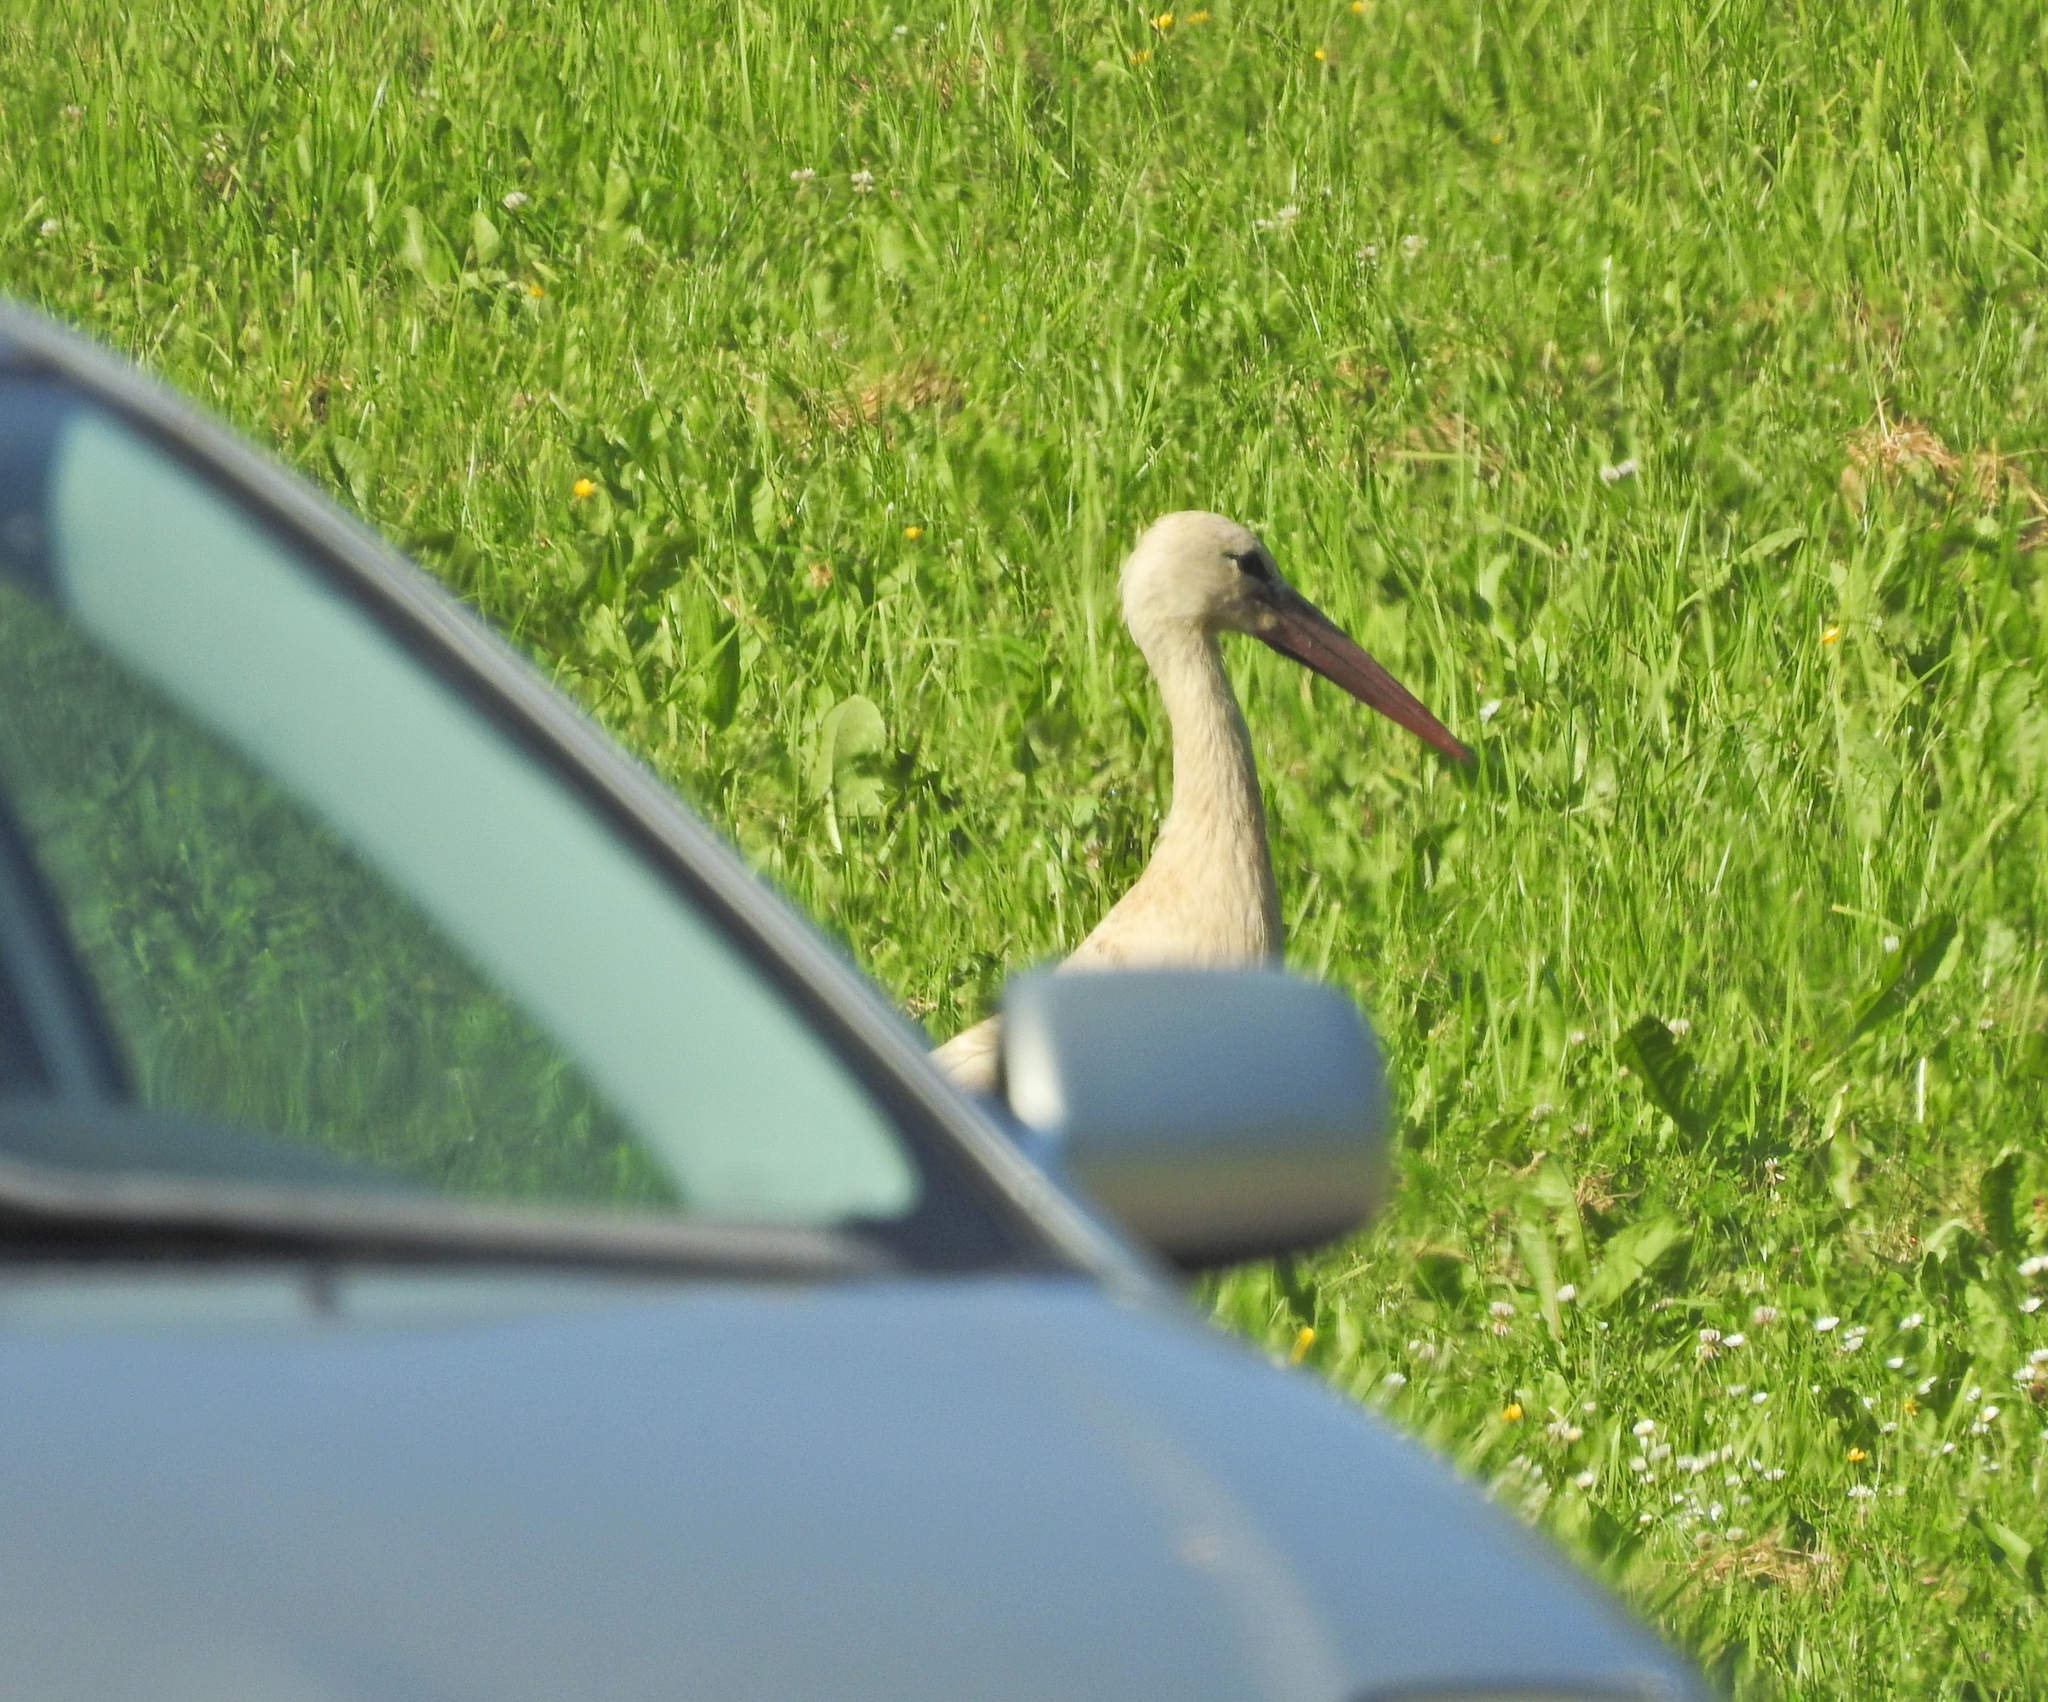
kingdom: Animalia
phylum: Chordata
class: Aves
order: Ciconiiformes
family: Ciconiidae
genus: Ciconia
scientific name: Ciconia ciconia
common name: White stork
